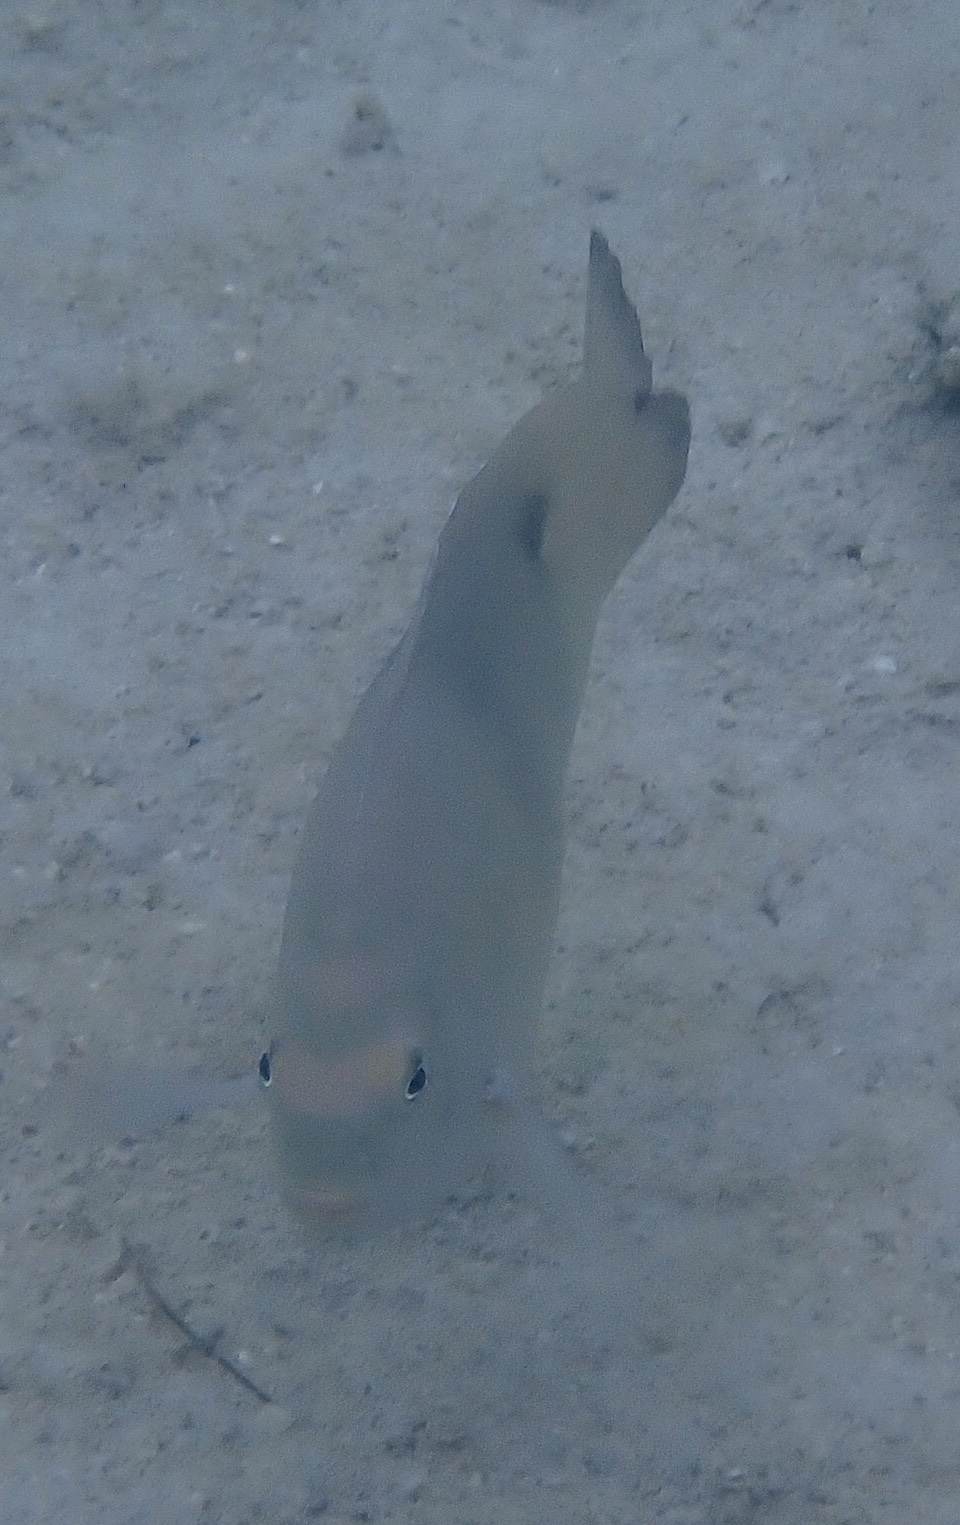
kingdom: Animalia
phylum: Chordata
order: Perciformes
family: Pomacentridae
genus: Dischistodus
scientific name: Dischistodus perspicillatus
